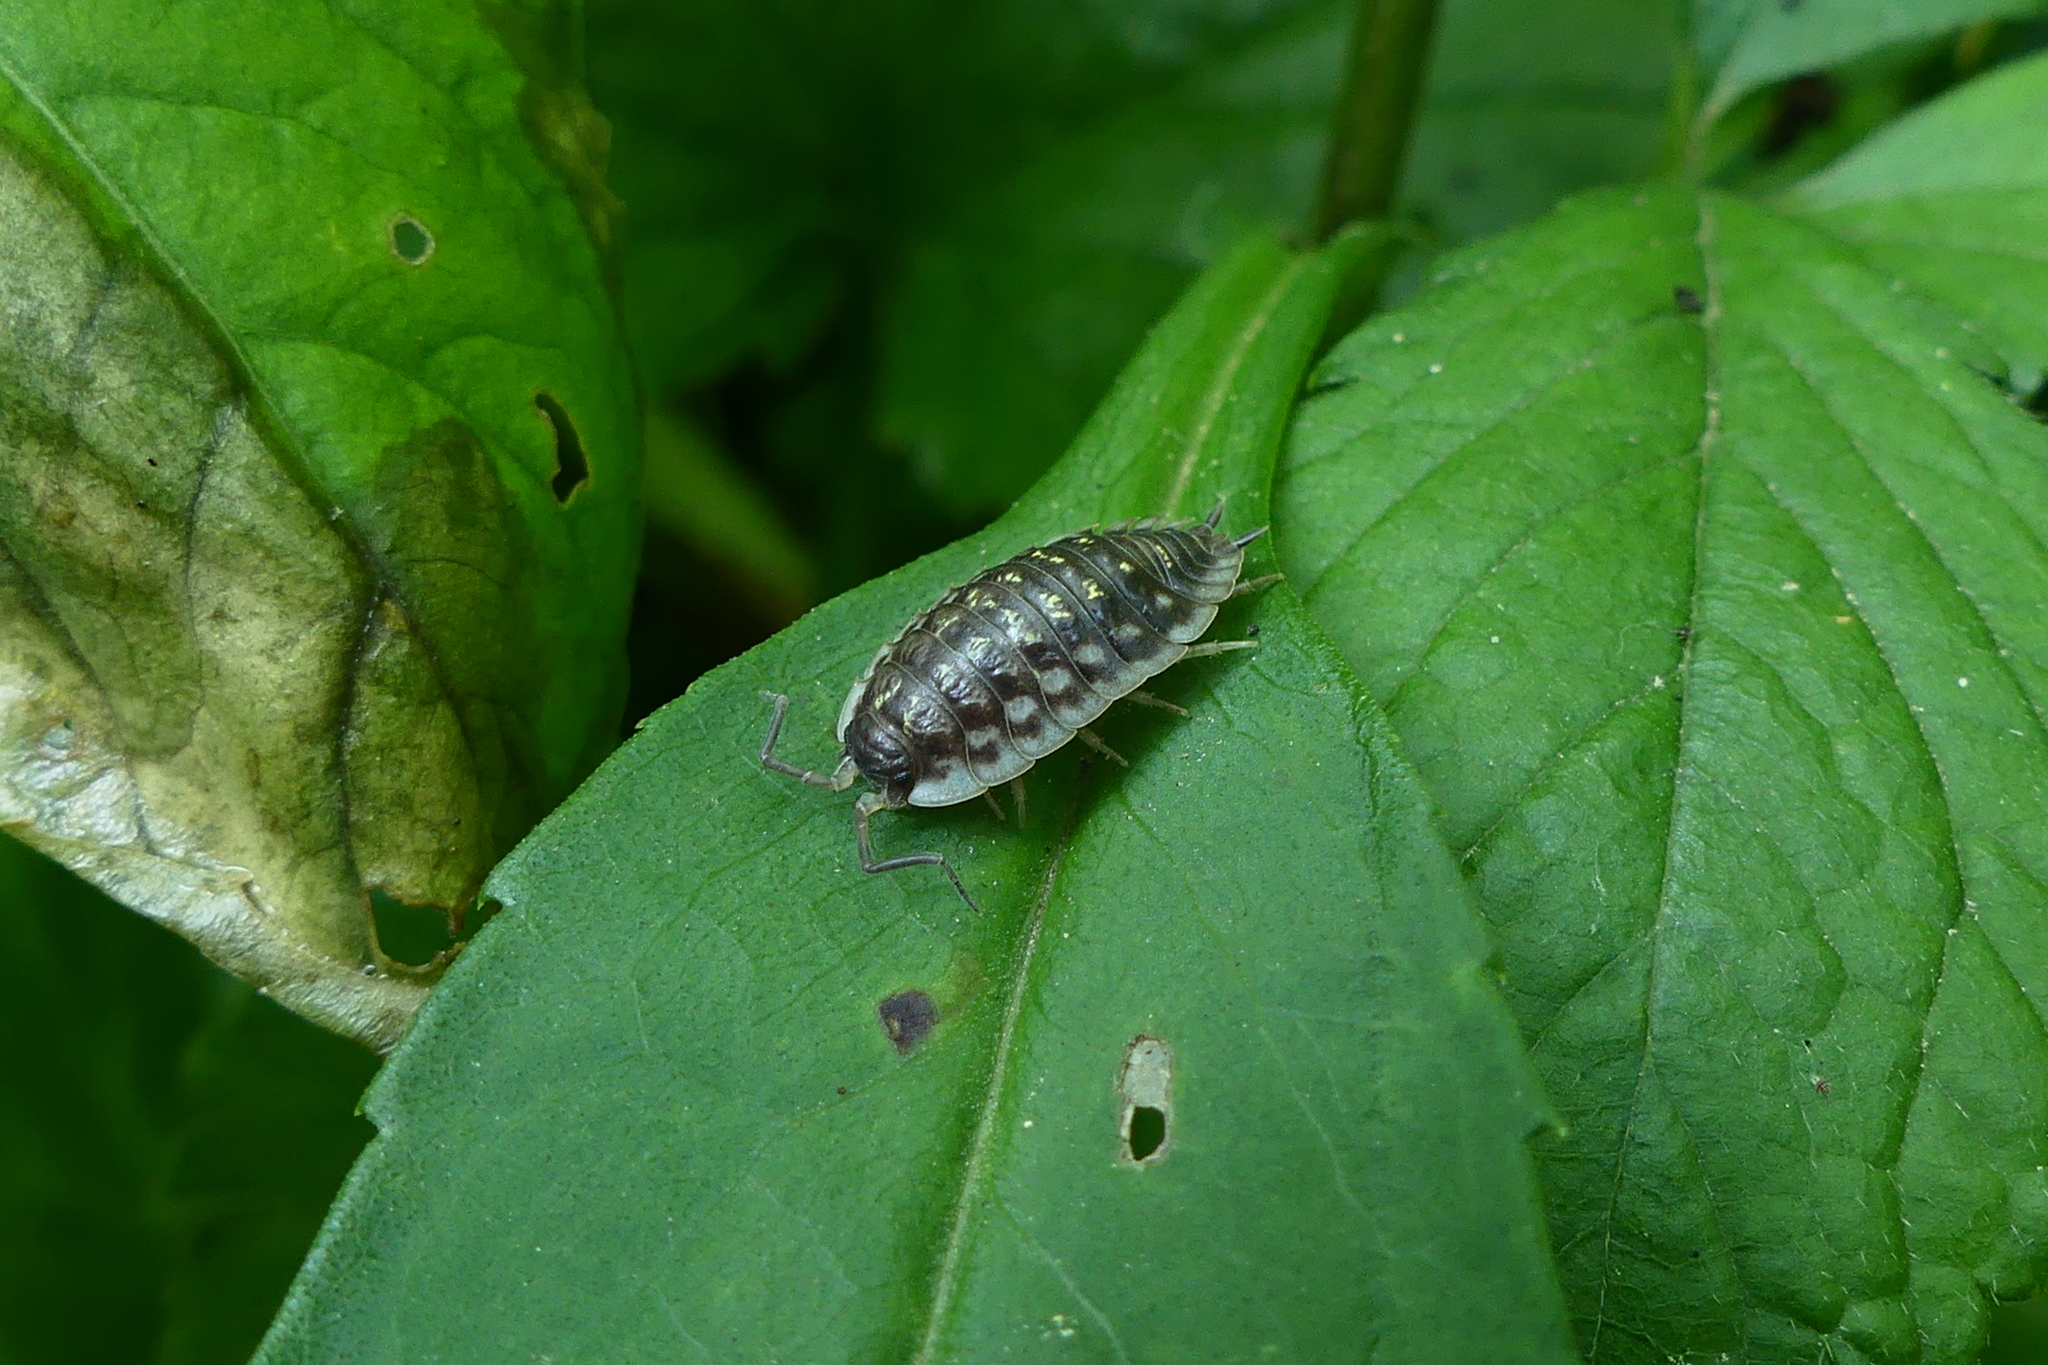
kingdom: Animalia
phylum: Arthropoda
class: Malacostraca
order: Isopoda
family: Oniscidae
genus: Oniscus
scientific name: Oniscus asellus
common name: Common shiny woodlouse
